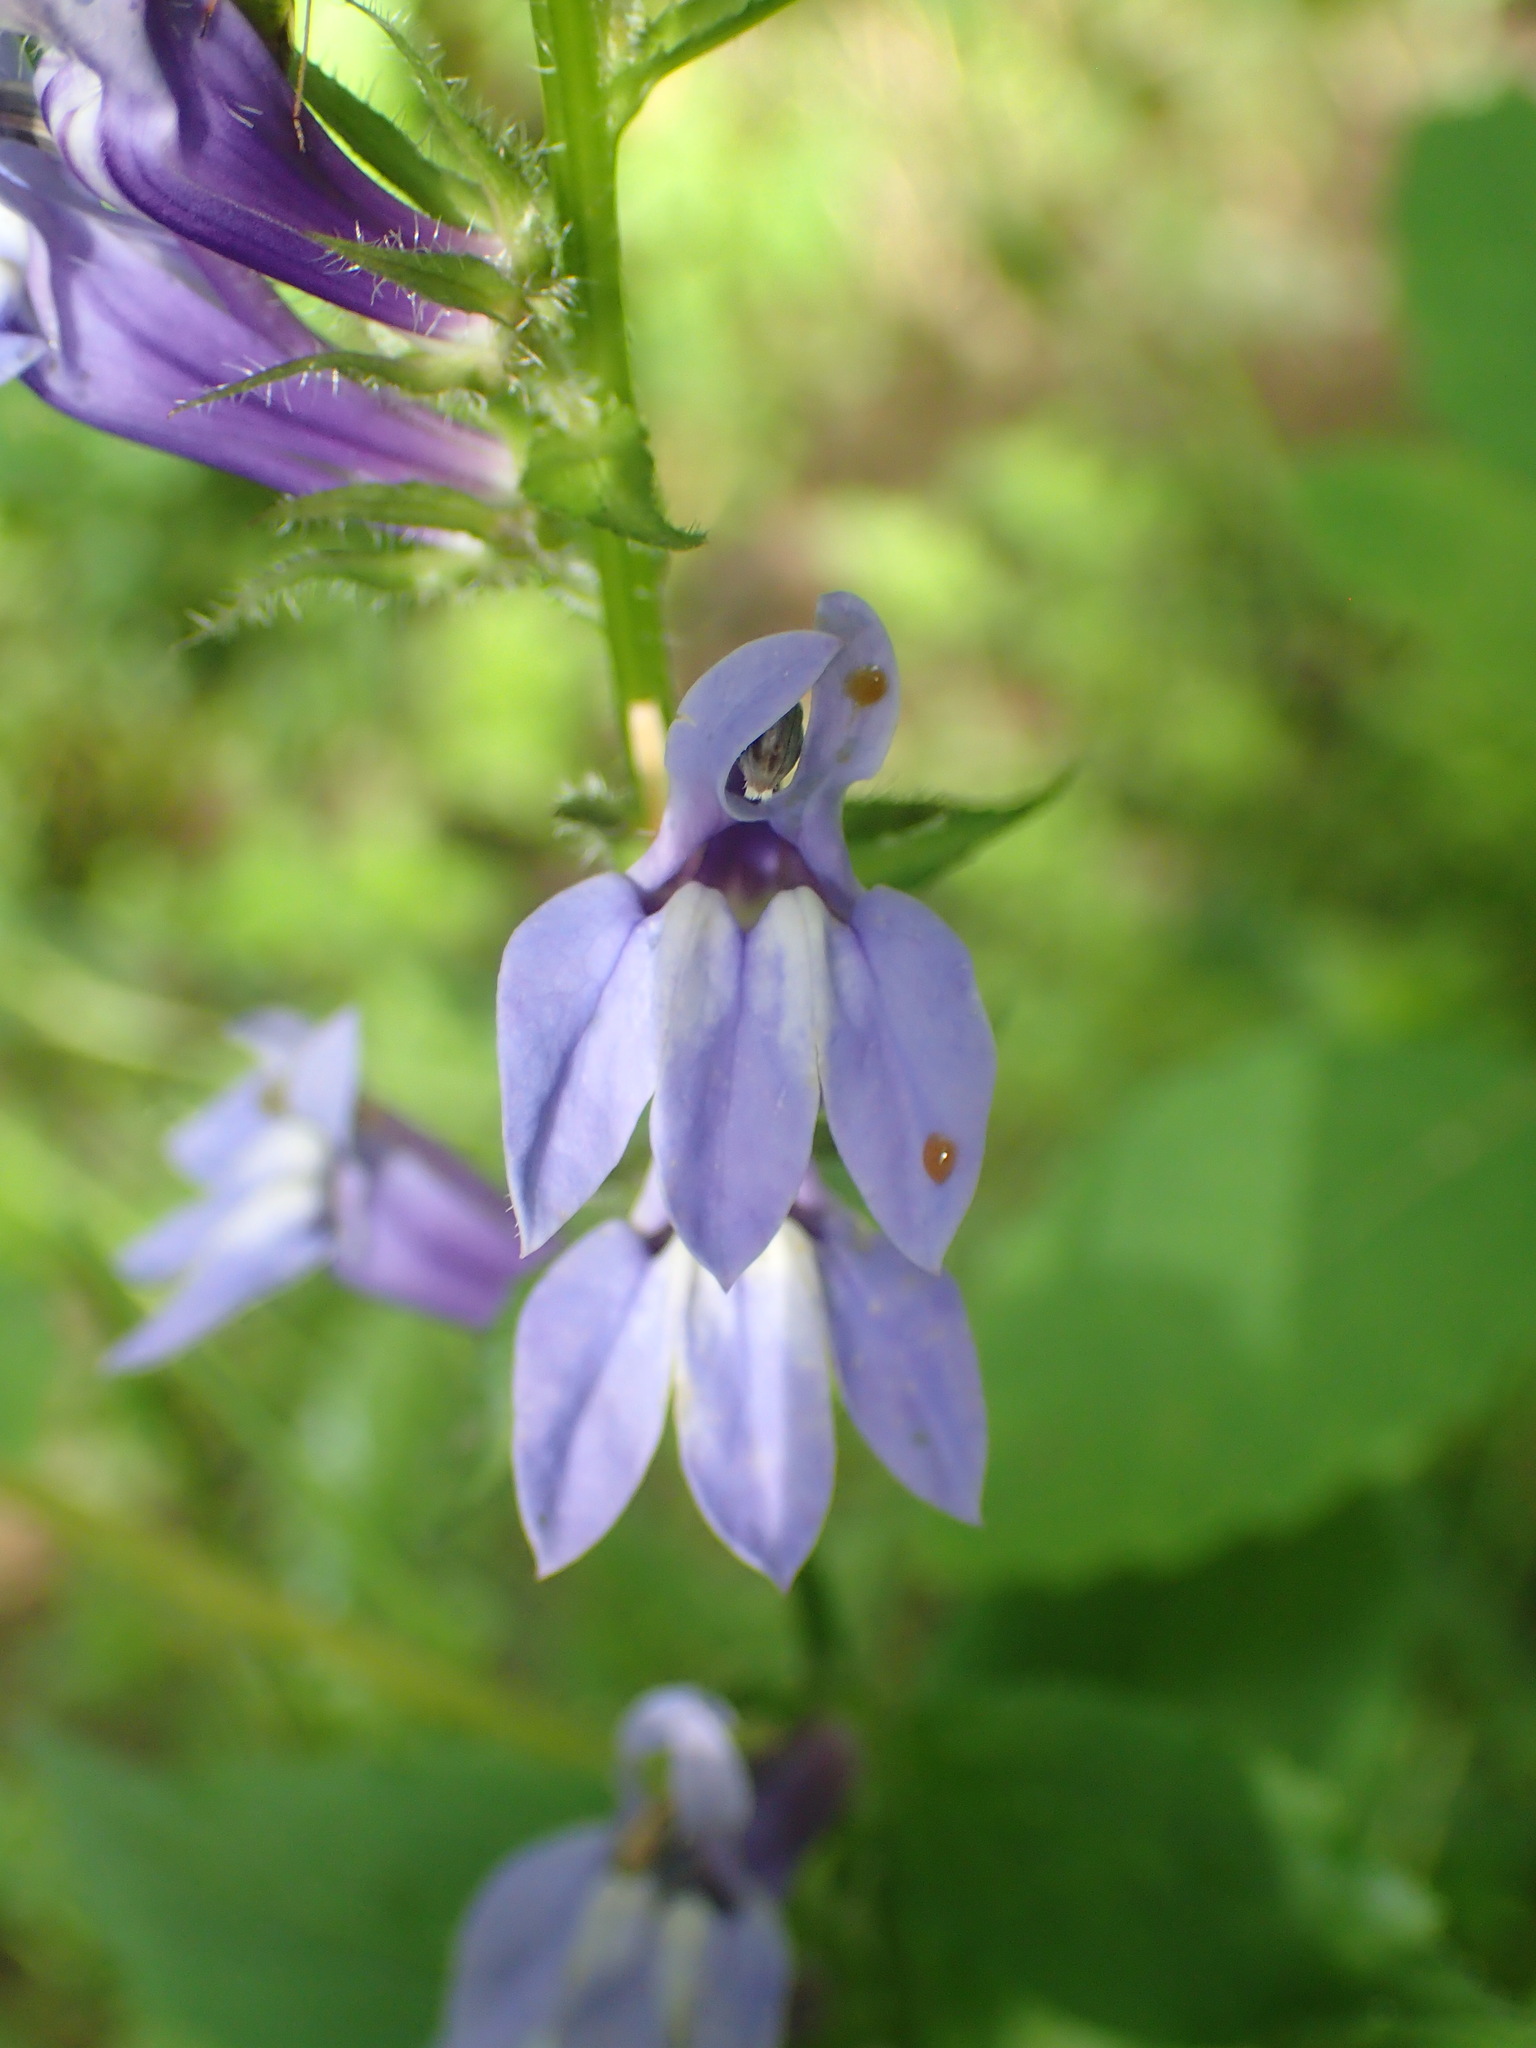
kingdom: Plantae
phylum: Tracheophyta
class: Magnoliopsida
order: Asterales
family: Campanulaceae
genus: Lobelia
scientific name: Lobelia siphilitica
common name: Great lobelia
